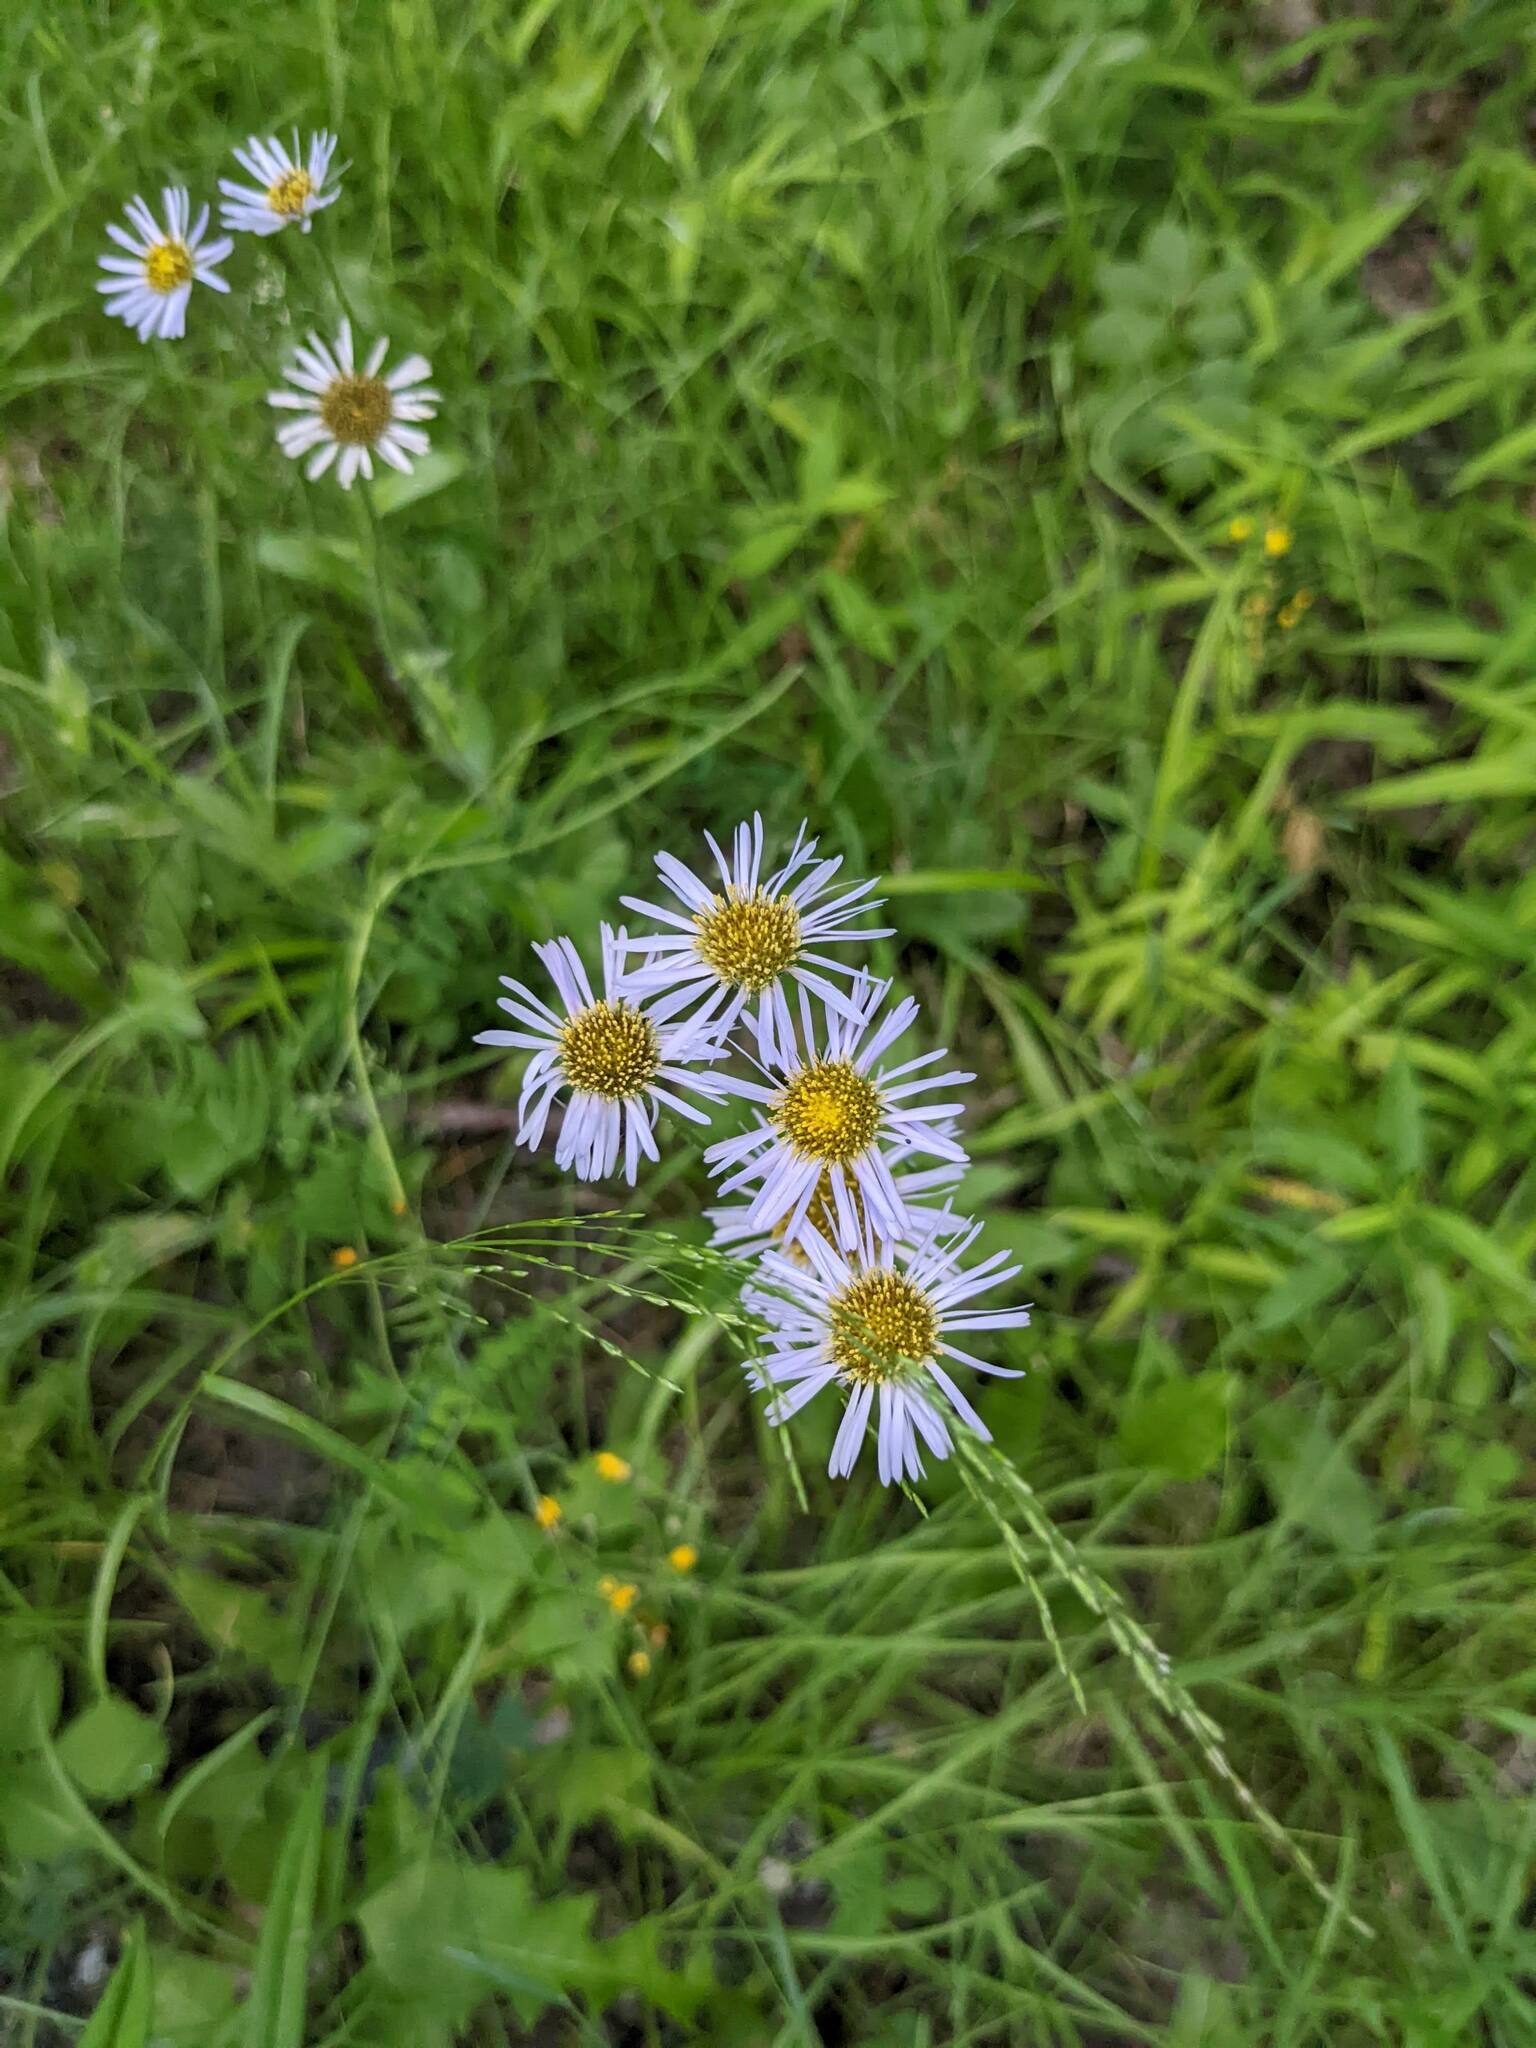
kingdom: Plantae
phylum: Tracheophyta
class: Magnoliopsida
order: Asterales
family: Asteraceae
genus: Erigeron
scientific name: Erigeron pulchellus
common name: Hairy fleabane
